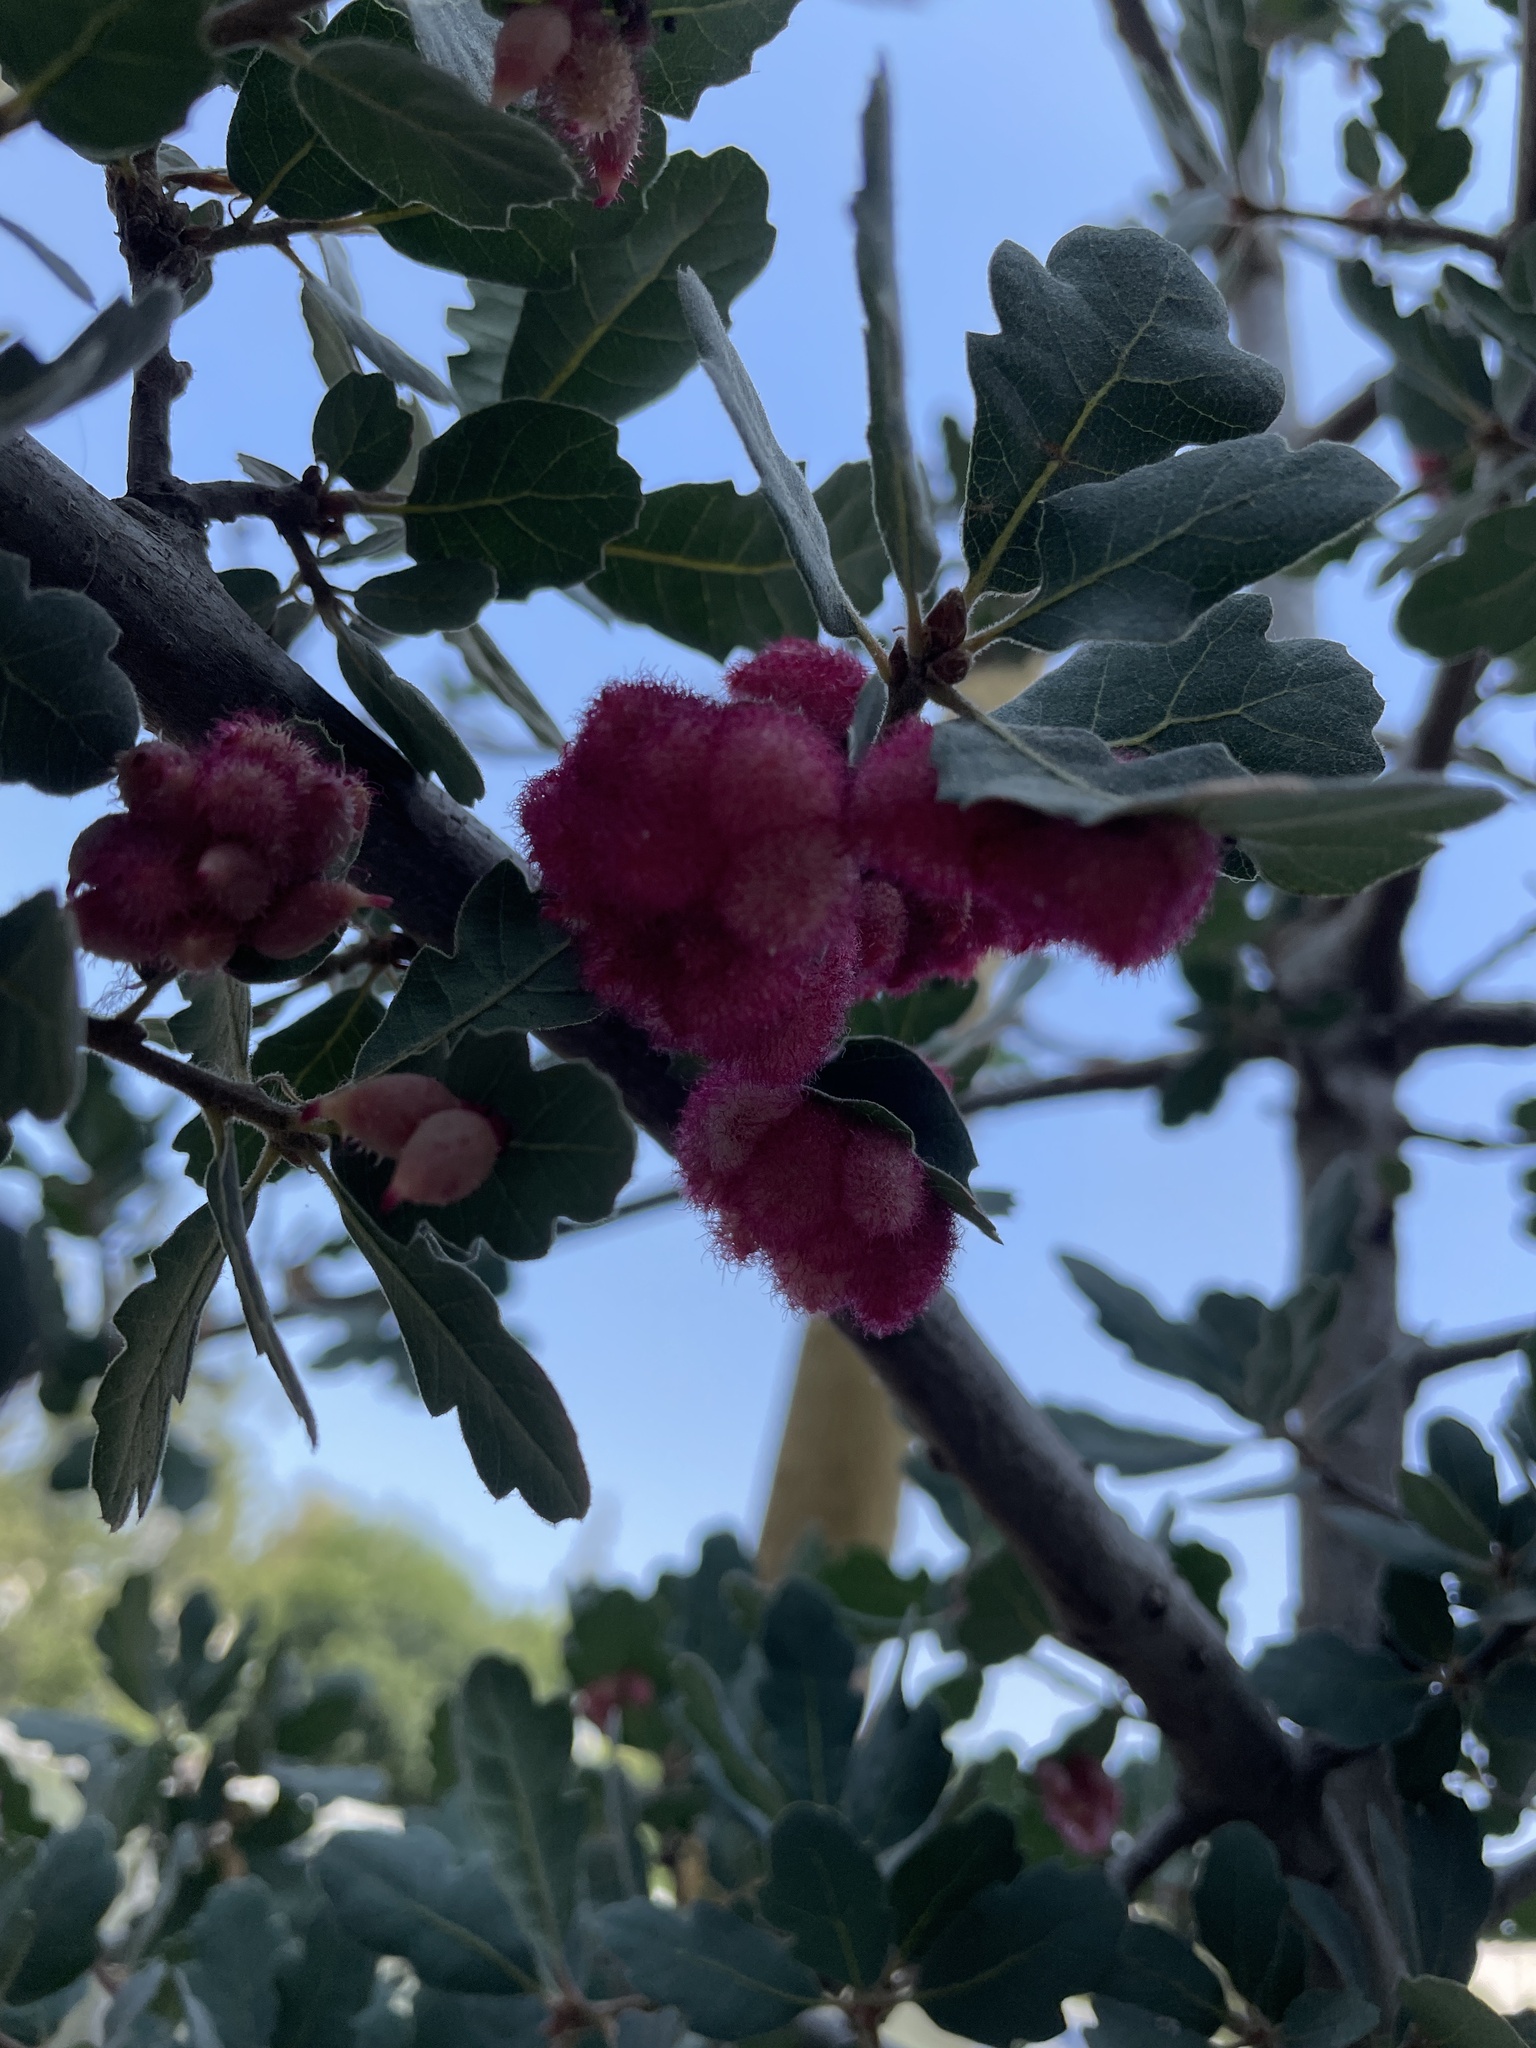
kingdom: Animalia
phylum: Arthropoda
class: Insecta
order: Hymenoptera
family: Cynipidae
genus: Andricus
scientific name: Andricus
